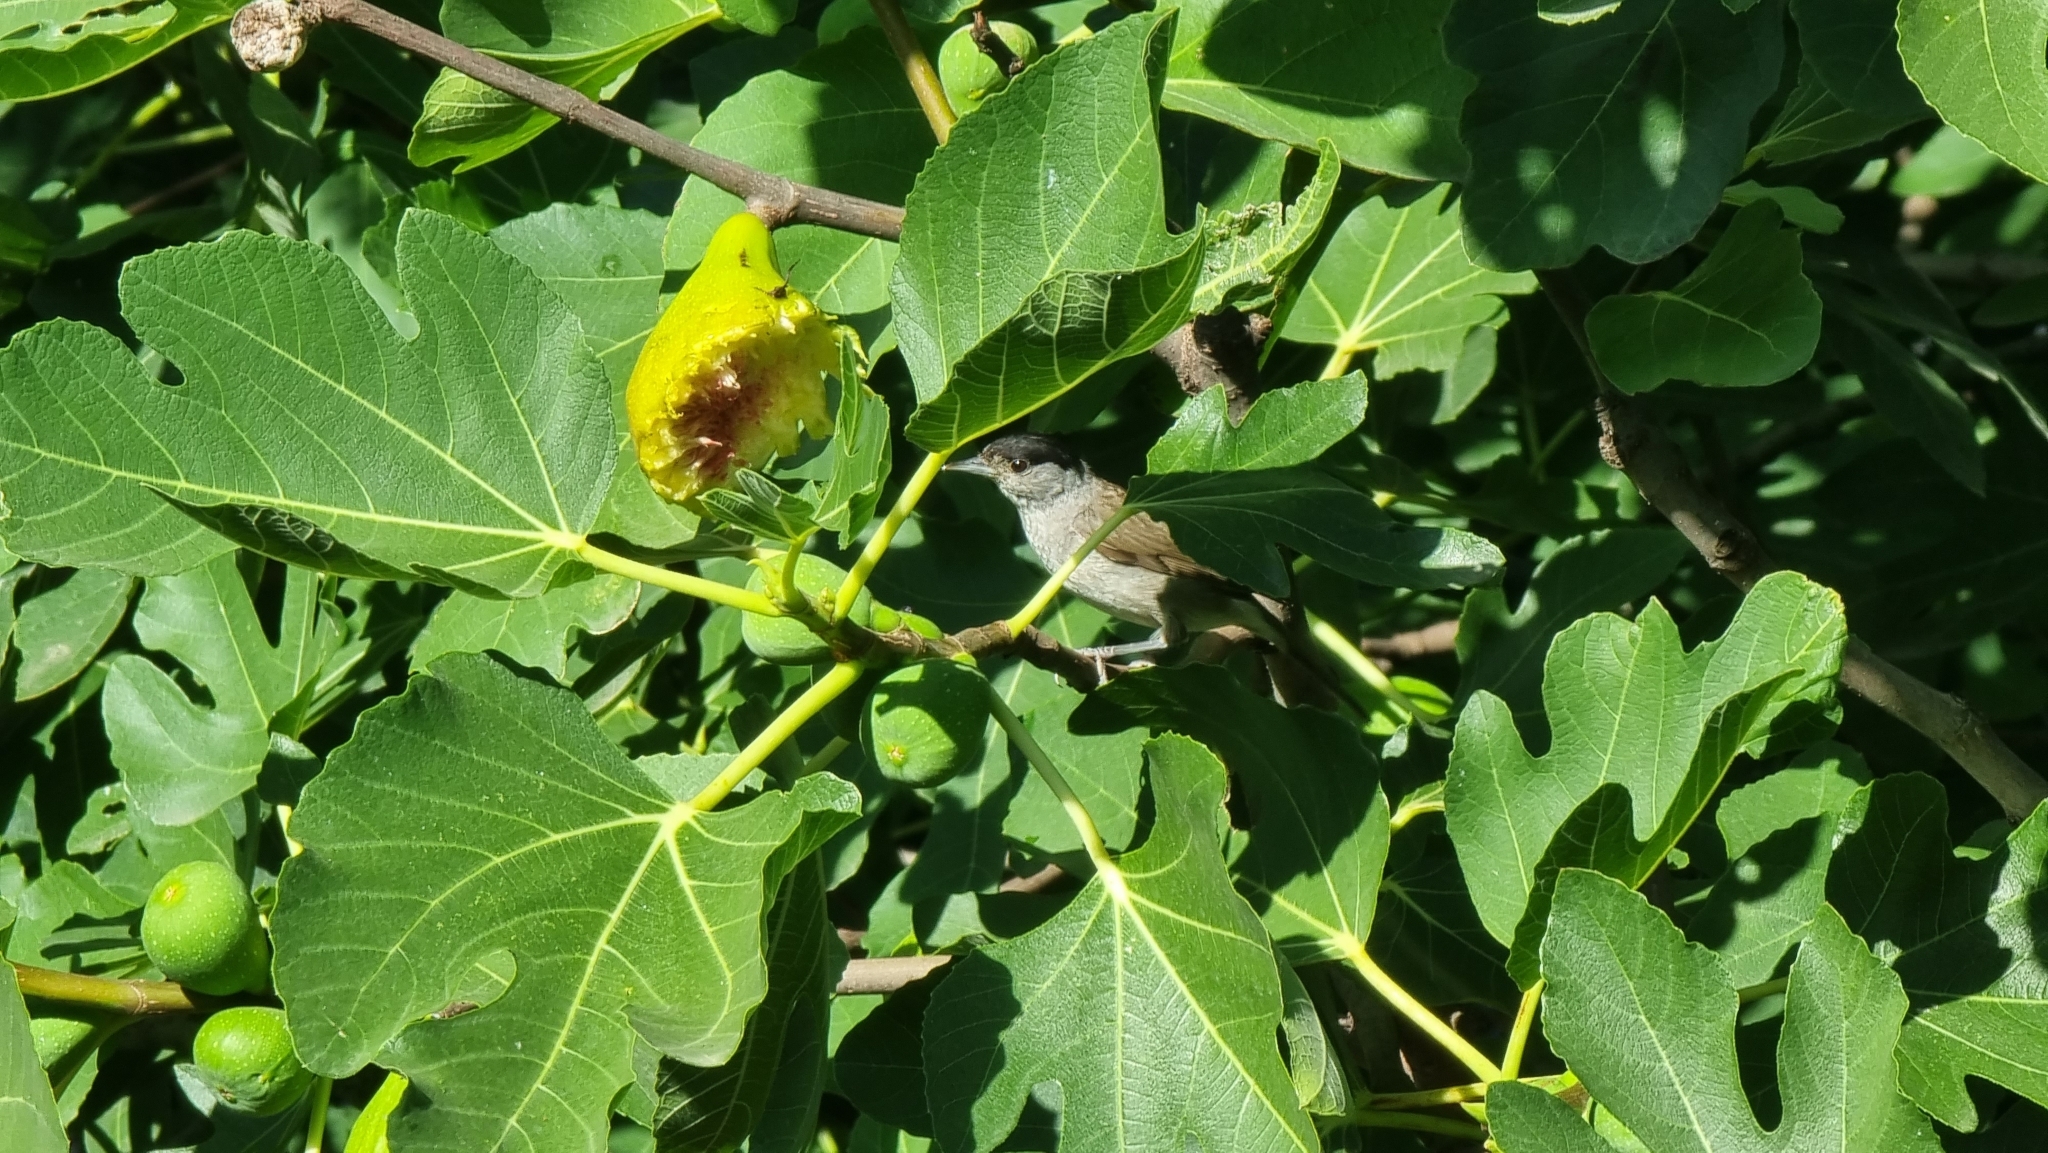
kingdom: Animalia
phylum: Chordata
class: Aves
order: Passeriformes
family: Sylviidae
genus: Sylvia
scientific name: Sylvia atricapilla
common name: Eurasian blackcap
